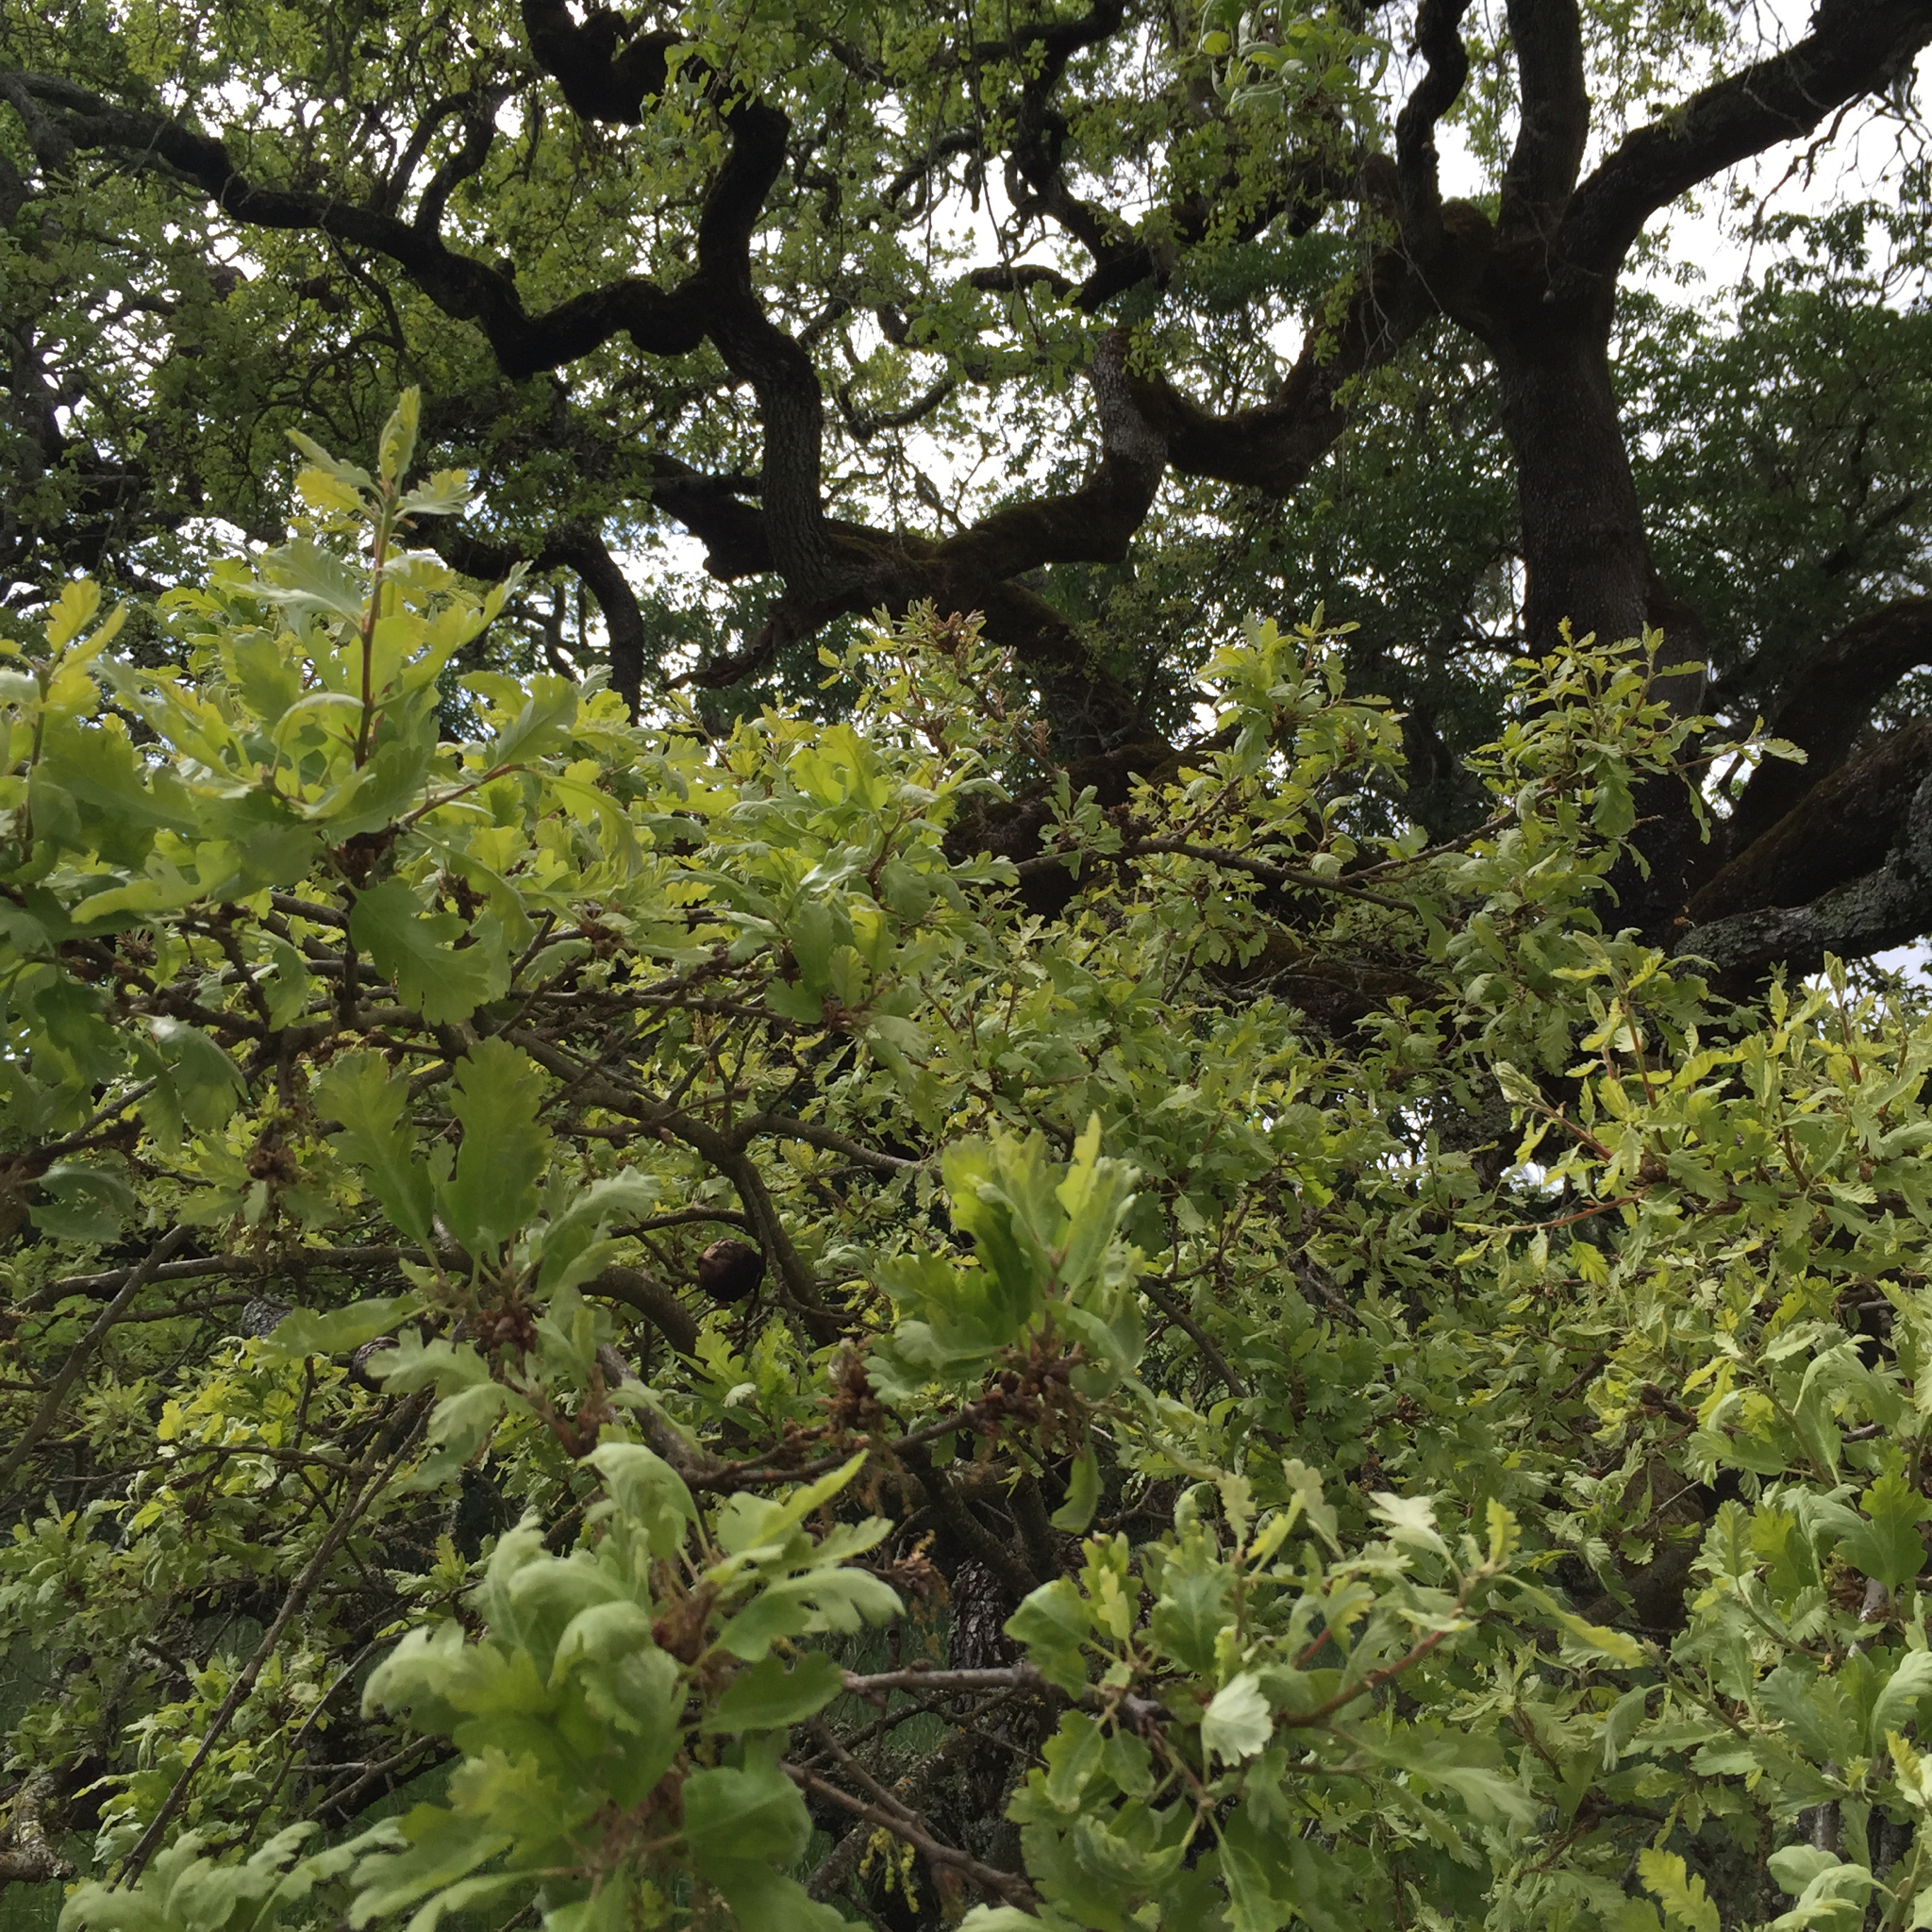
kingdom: Plantae
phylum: Tracheophyta
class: Magnoliopsida
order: Fagales
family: Fagaceae
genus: Quercus
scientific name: Quercus lobata
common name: Valley oak
